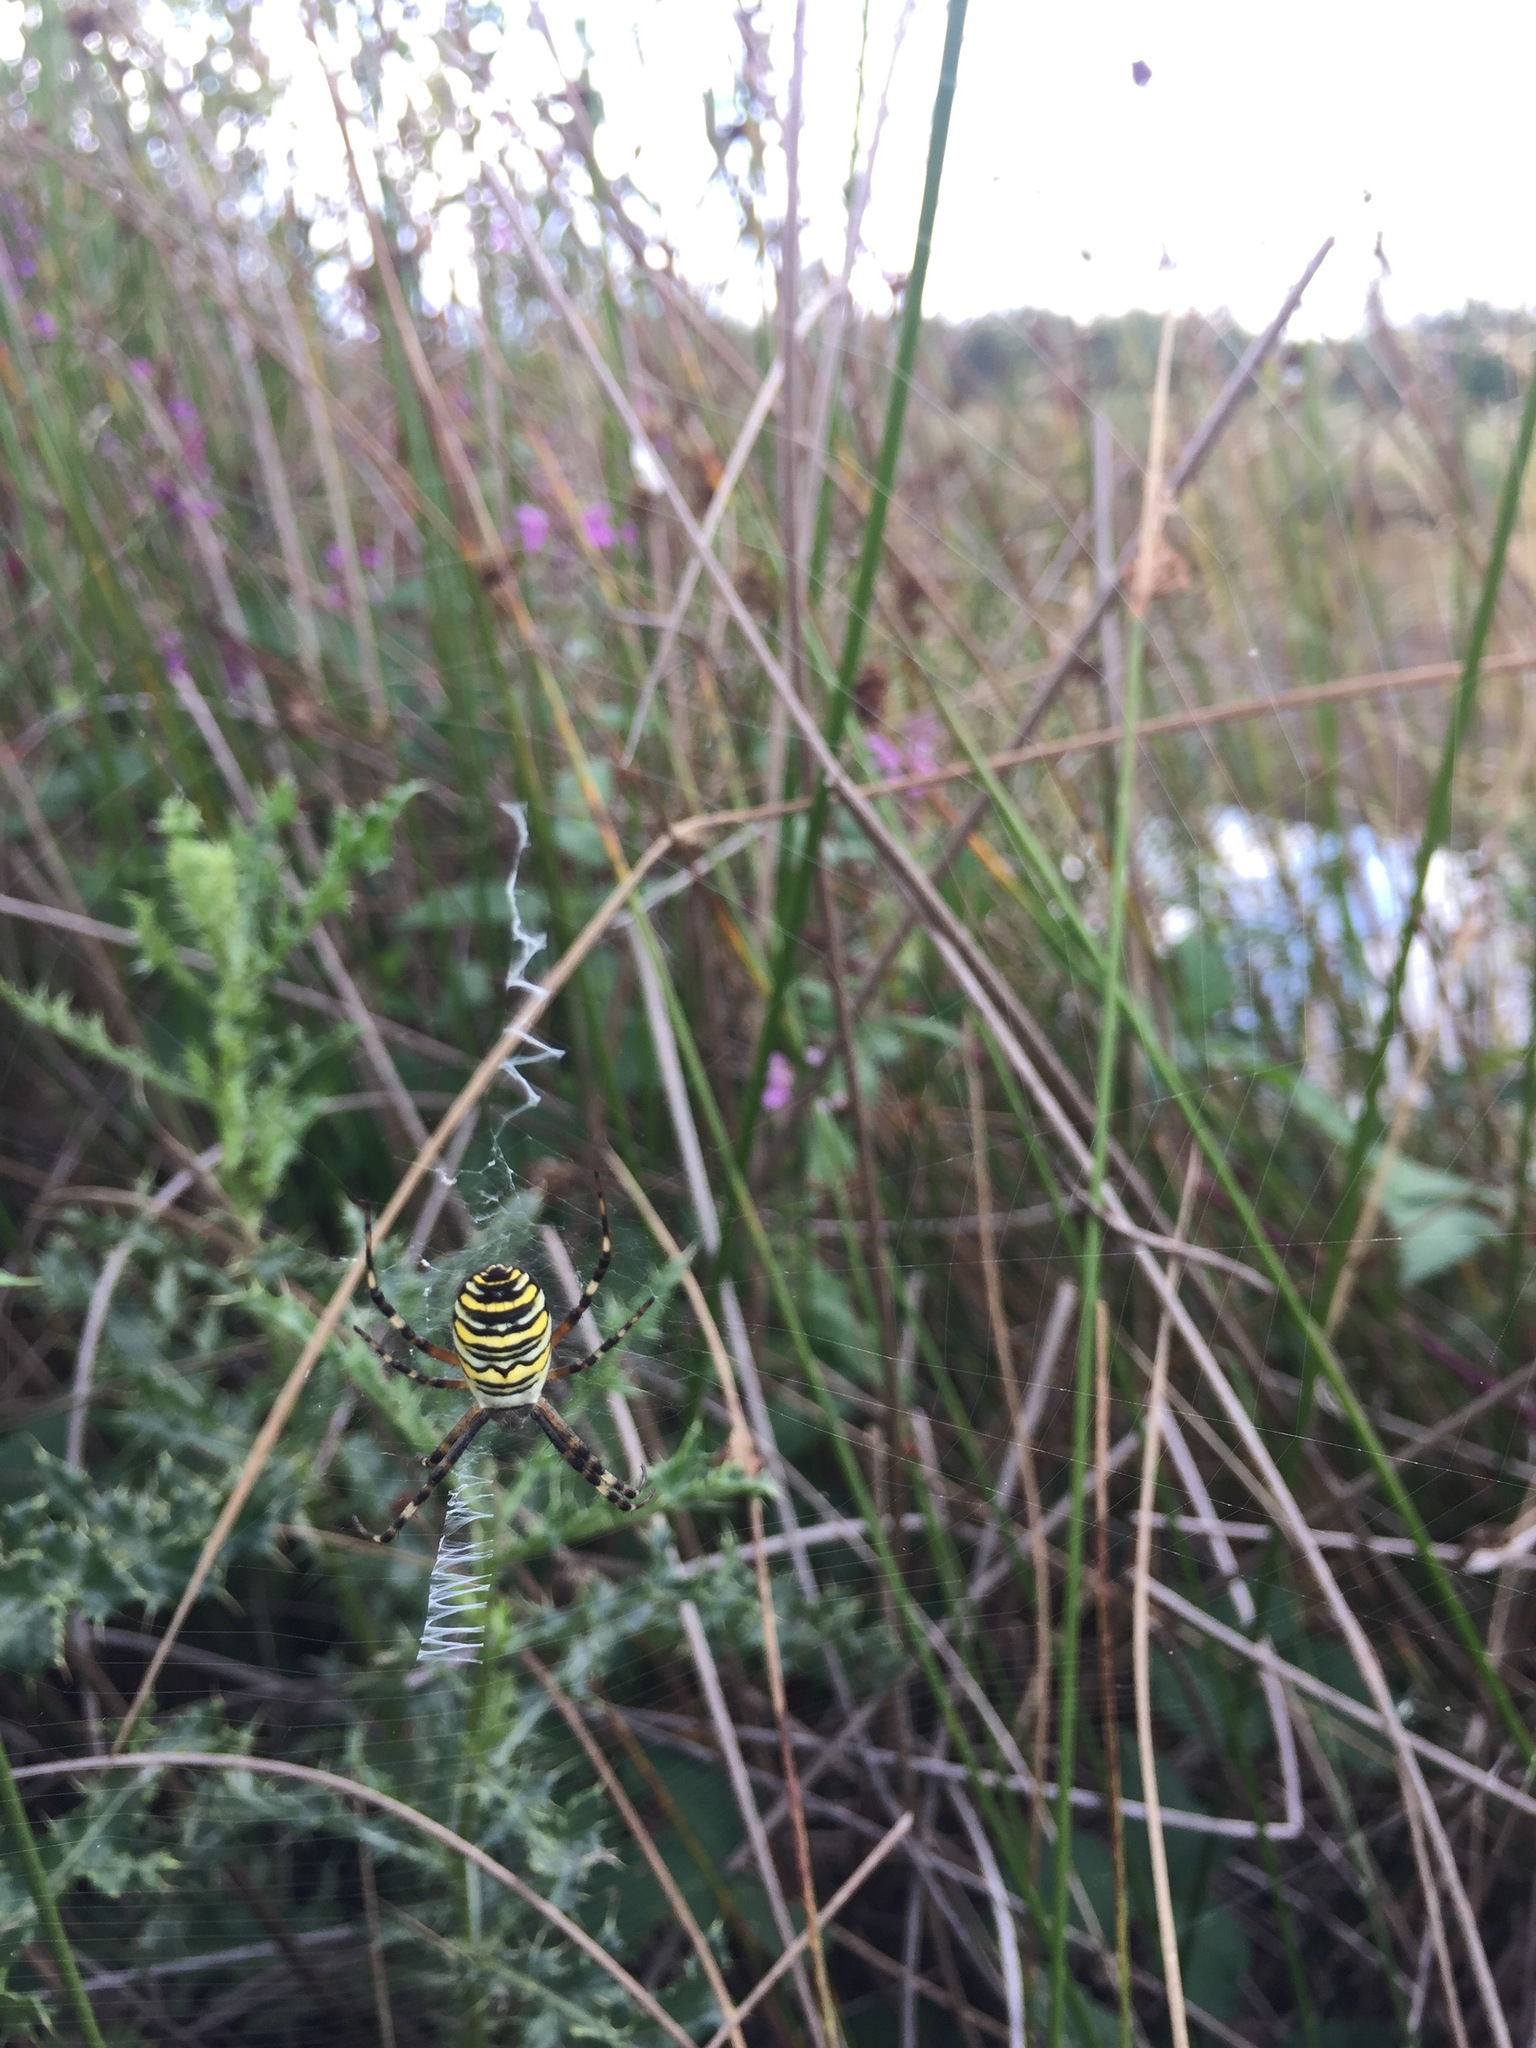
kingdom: Animalia
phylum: Arthropoda
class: Arachnida
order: Araneae
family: Araneidae
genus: Argiope
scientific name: Argiope bruennichi
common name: Wasp spider
